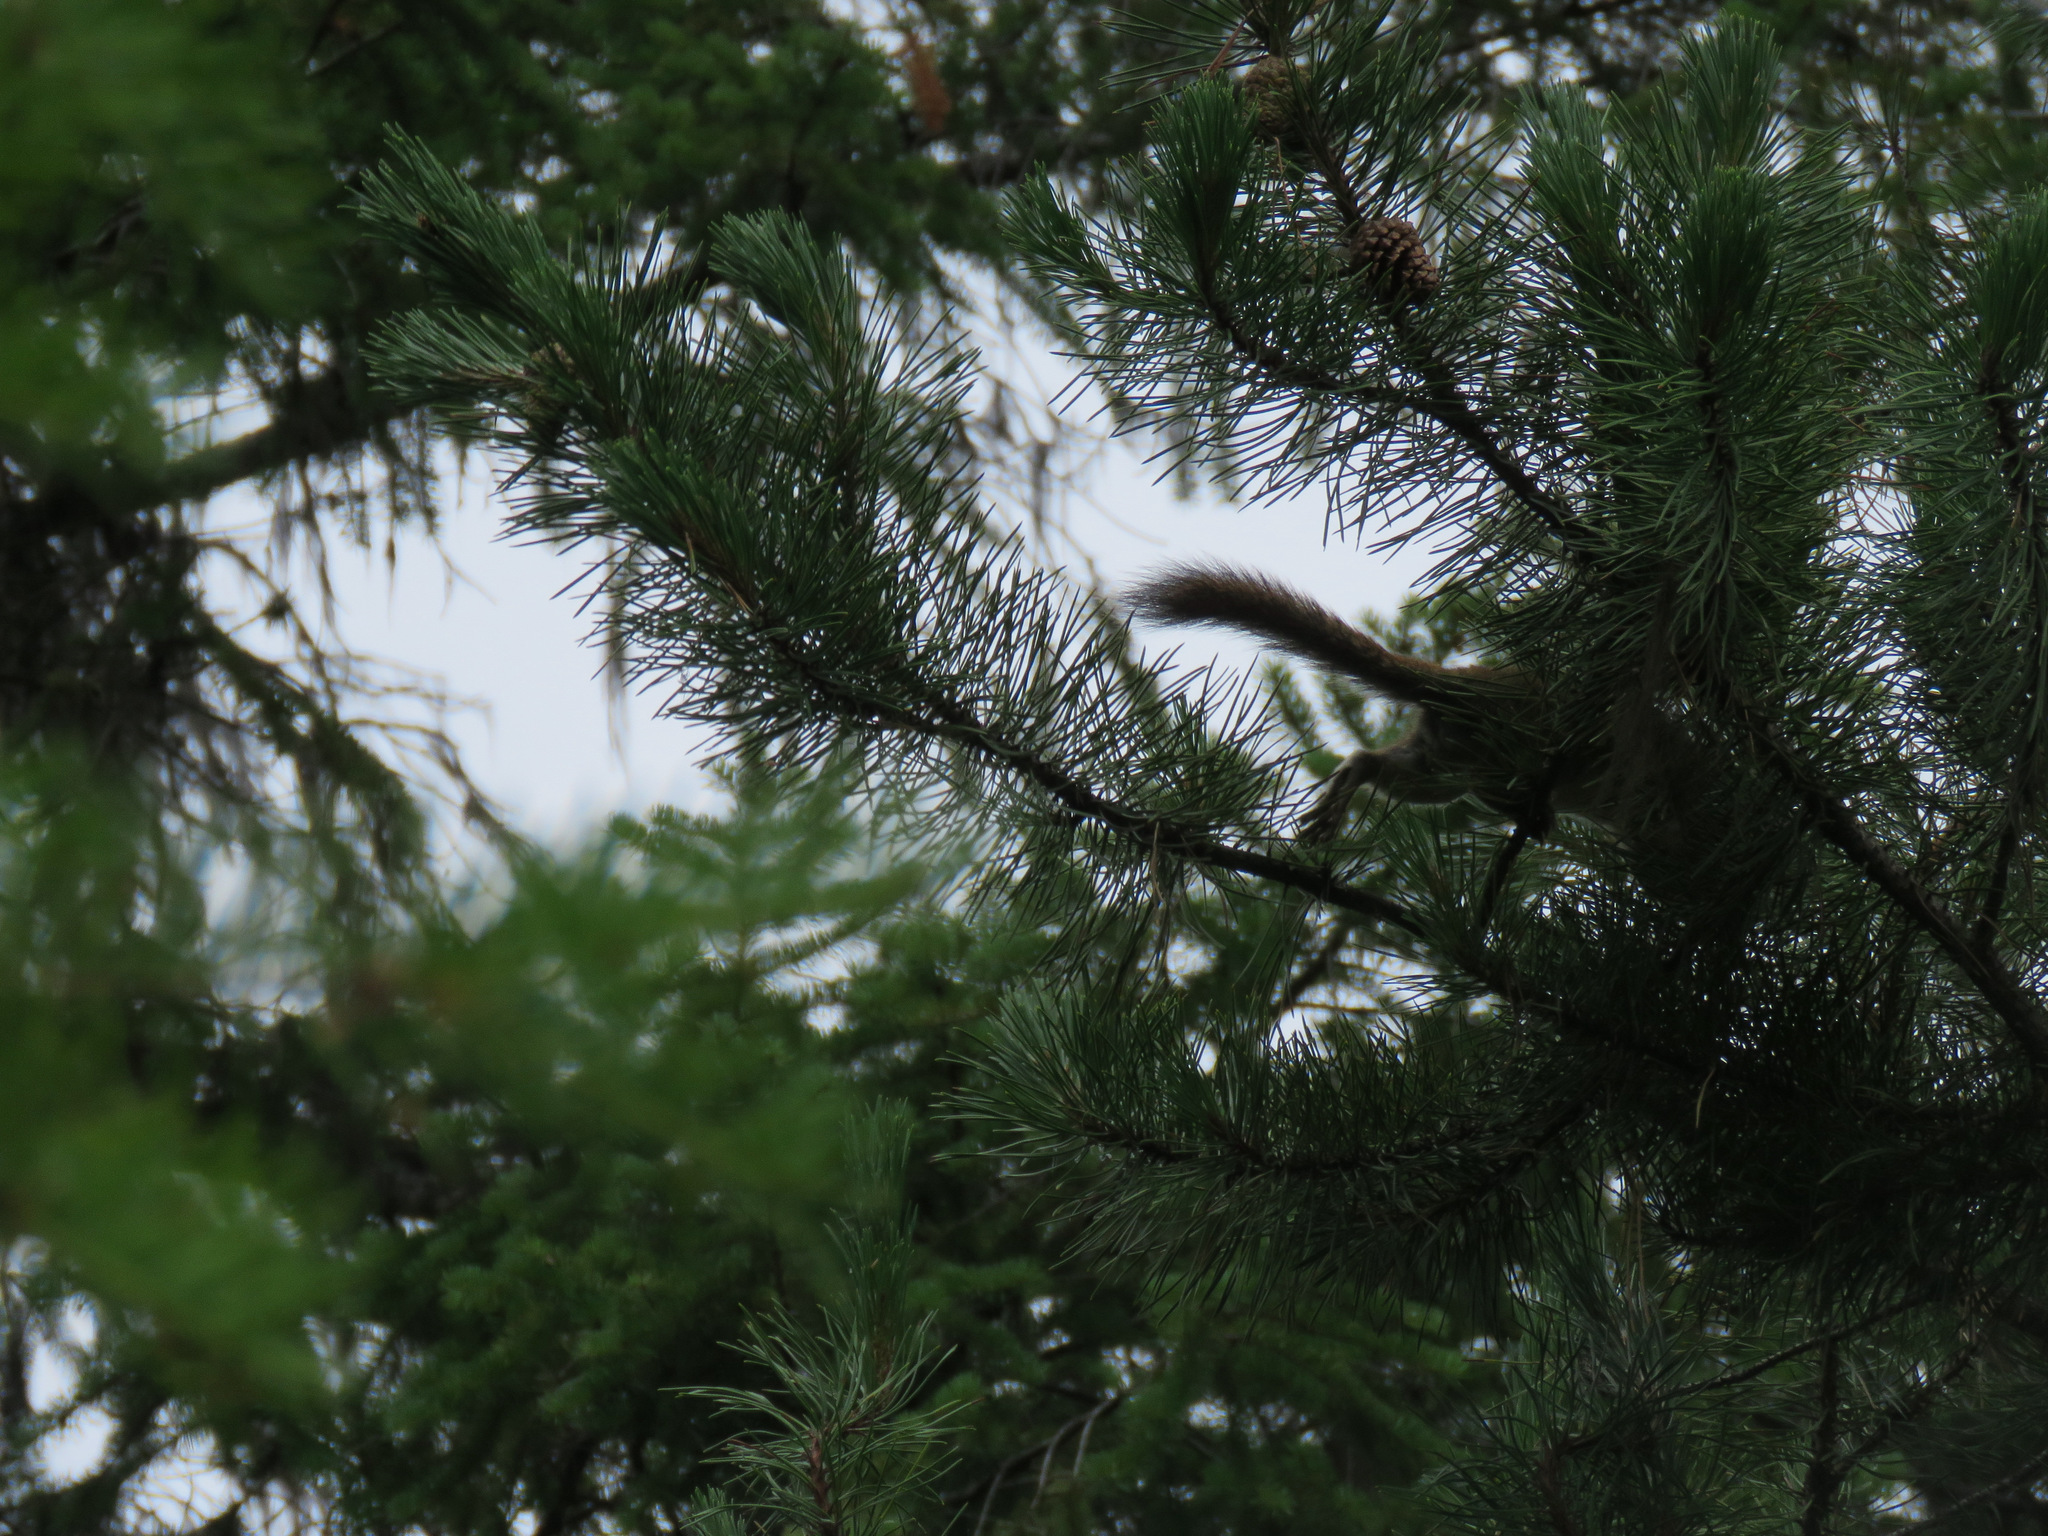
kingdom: Animalia
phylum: Chordata
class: Mammalia
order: Rodentia
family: Sciuridae
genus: Tamiasciurus
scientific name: Tamiasciurus hudsonicus
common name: Red squirrel
